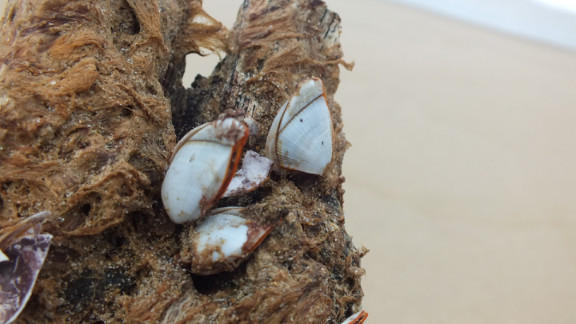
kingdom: Animalia
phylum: Arthropoda
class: Maxillopoda
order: Pedunculata
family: Lepadidae
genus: Lepas
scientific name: Lepas anserifera
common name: Goose barnacle
